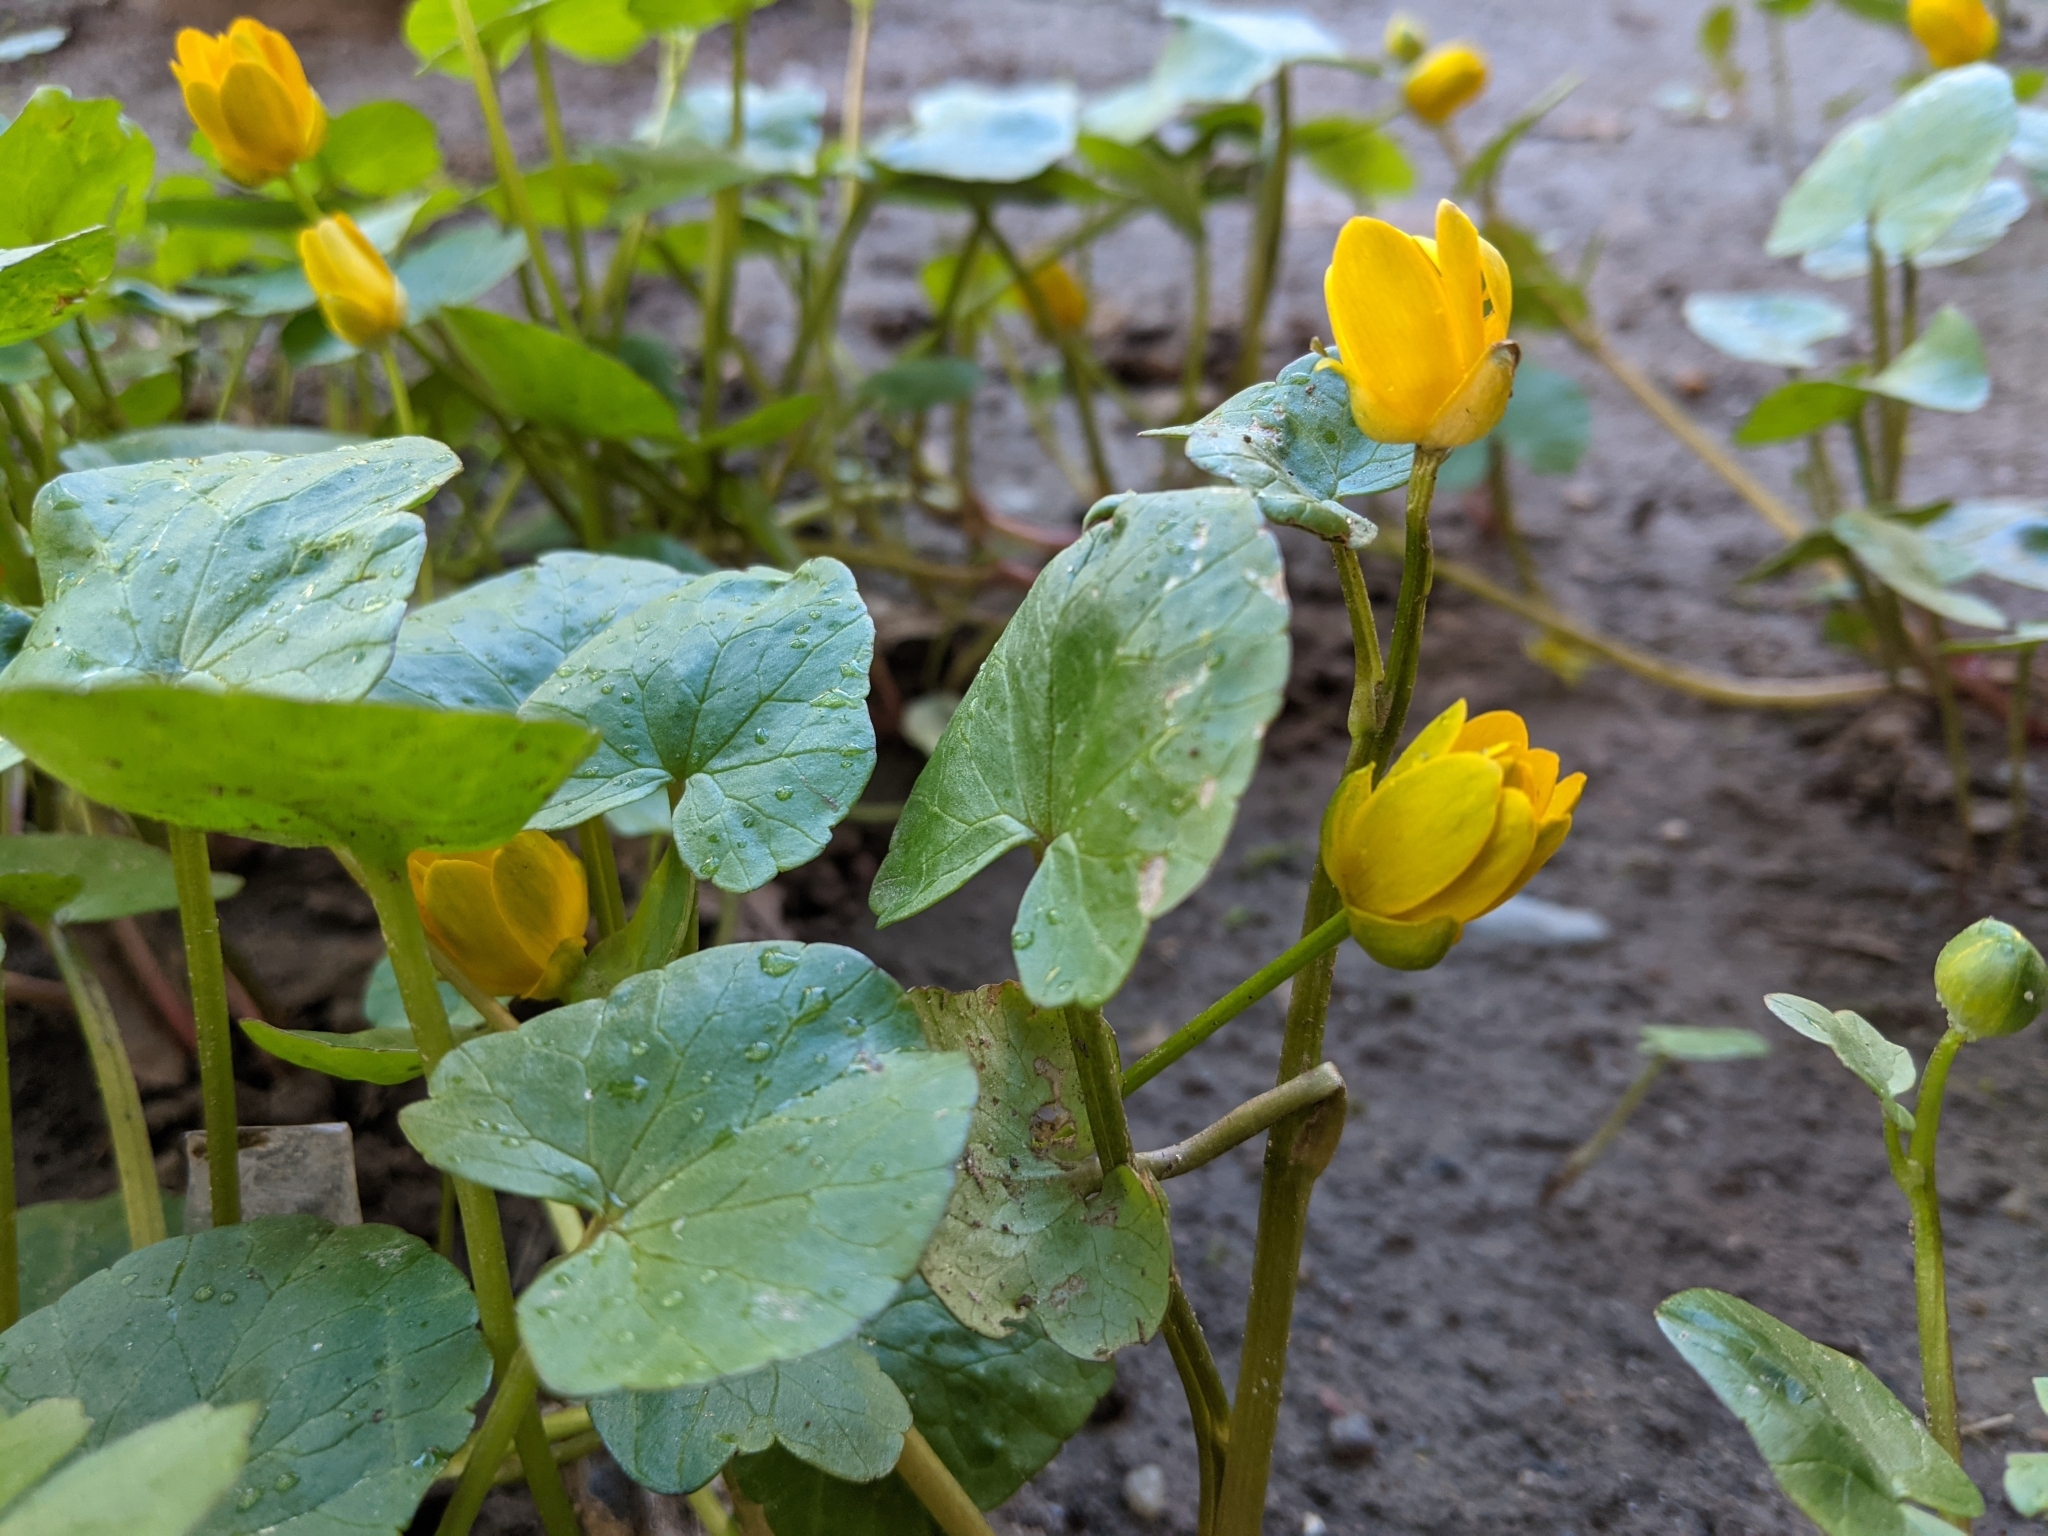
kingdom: Plantae
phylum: Tracheophyta
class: Magnoliopsida
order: Ranunculales
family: Ranunculaceae
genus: Ficaria
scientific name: Ficaria verna
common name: Lesser celandine
